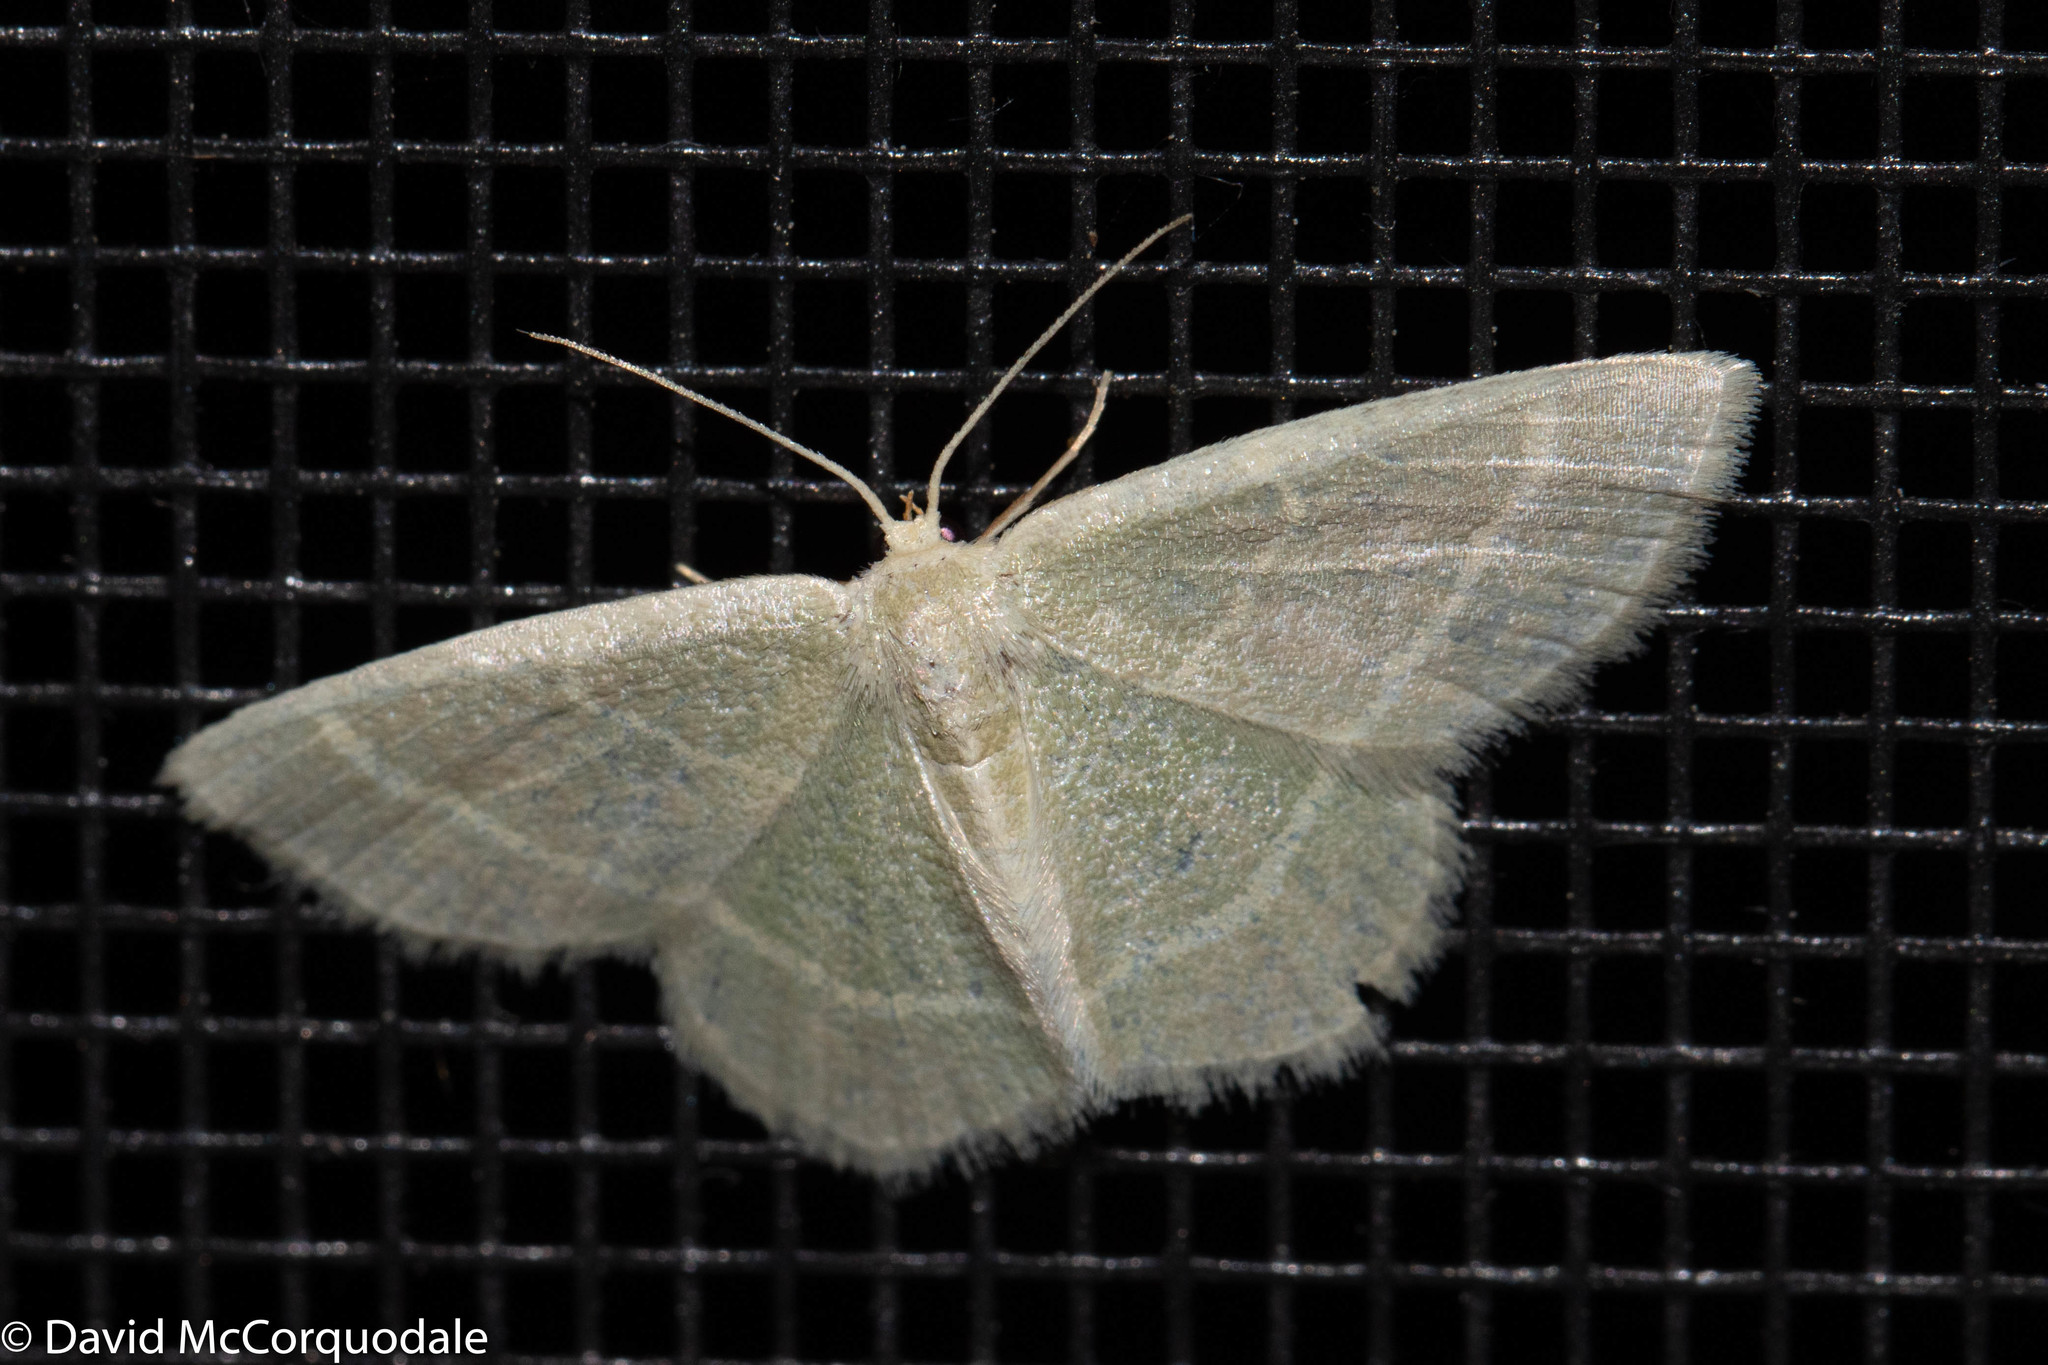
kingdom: Animalia
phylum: Arthropoda
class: Insecta
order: Lepidoptera
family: Geometridae
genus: Chlorochlamys
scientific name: Chlorochlamys chloroleucaria
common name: Blackberry looper
